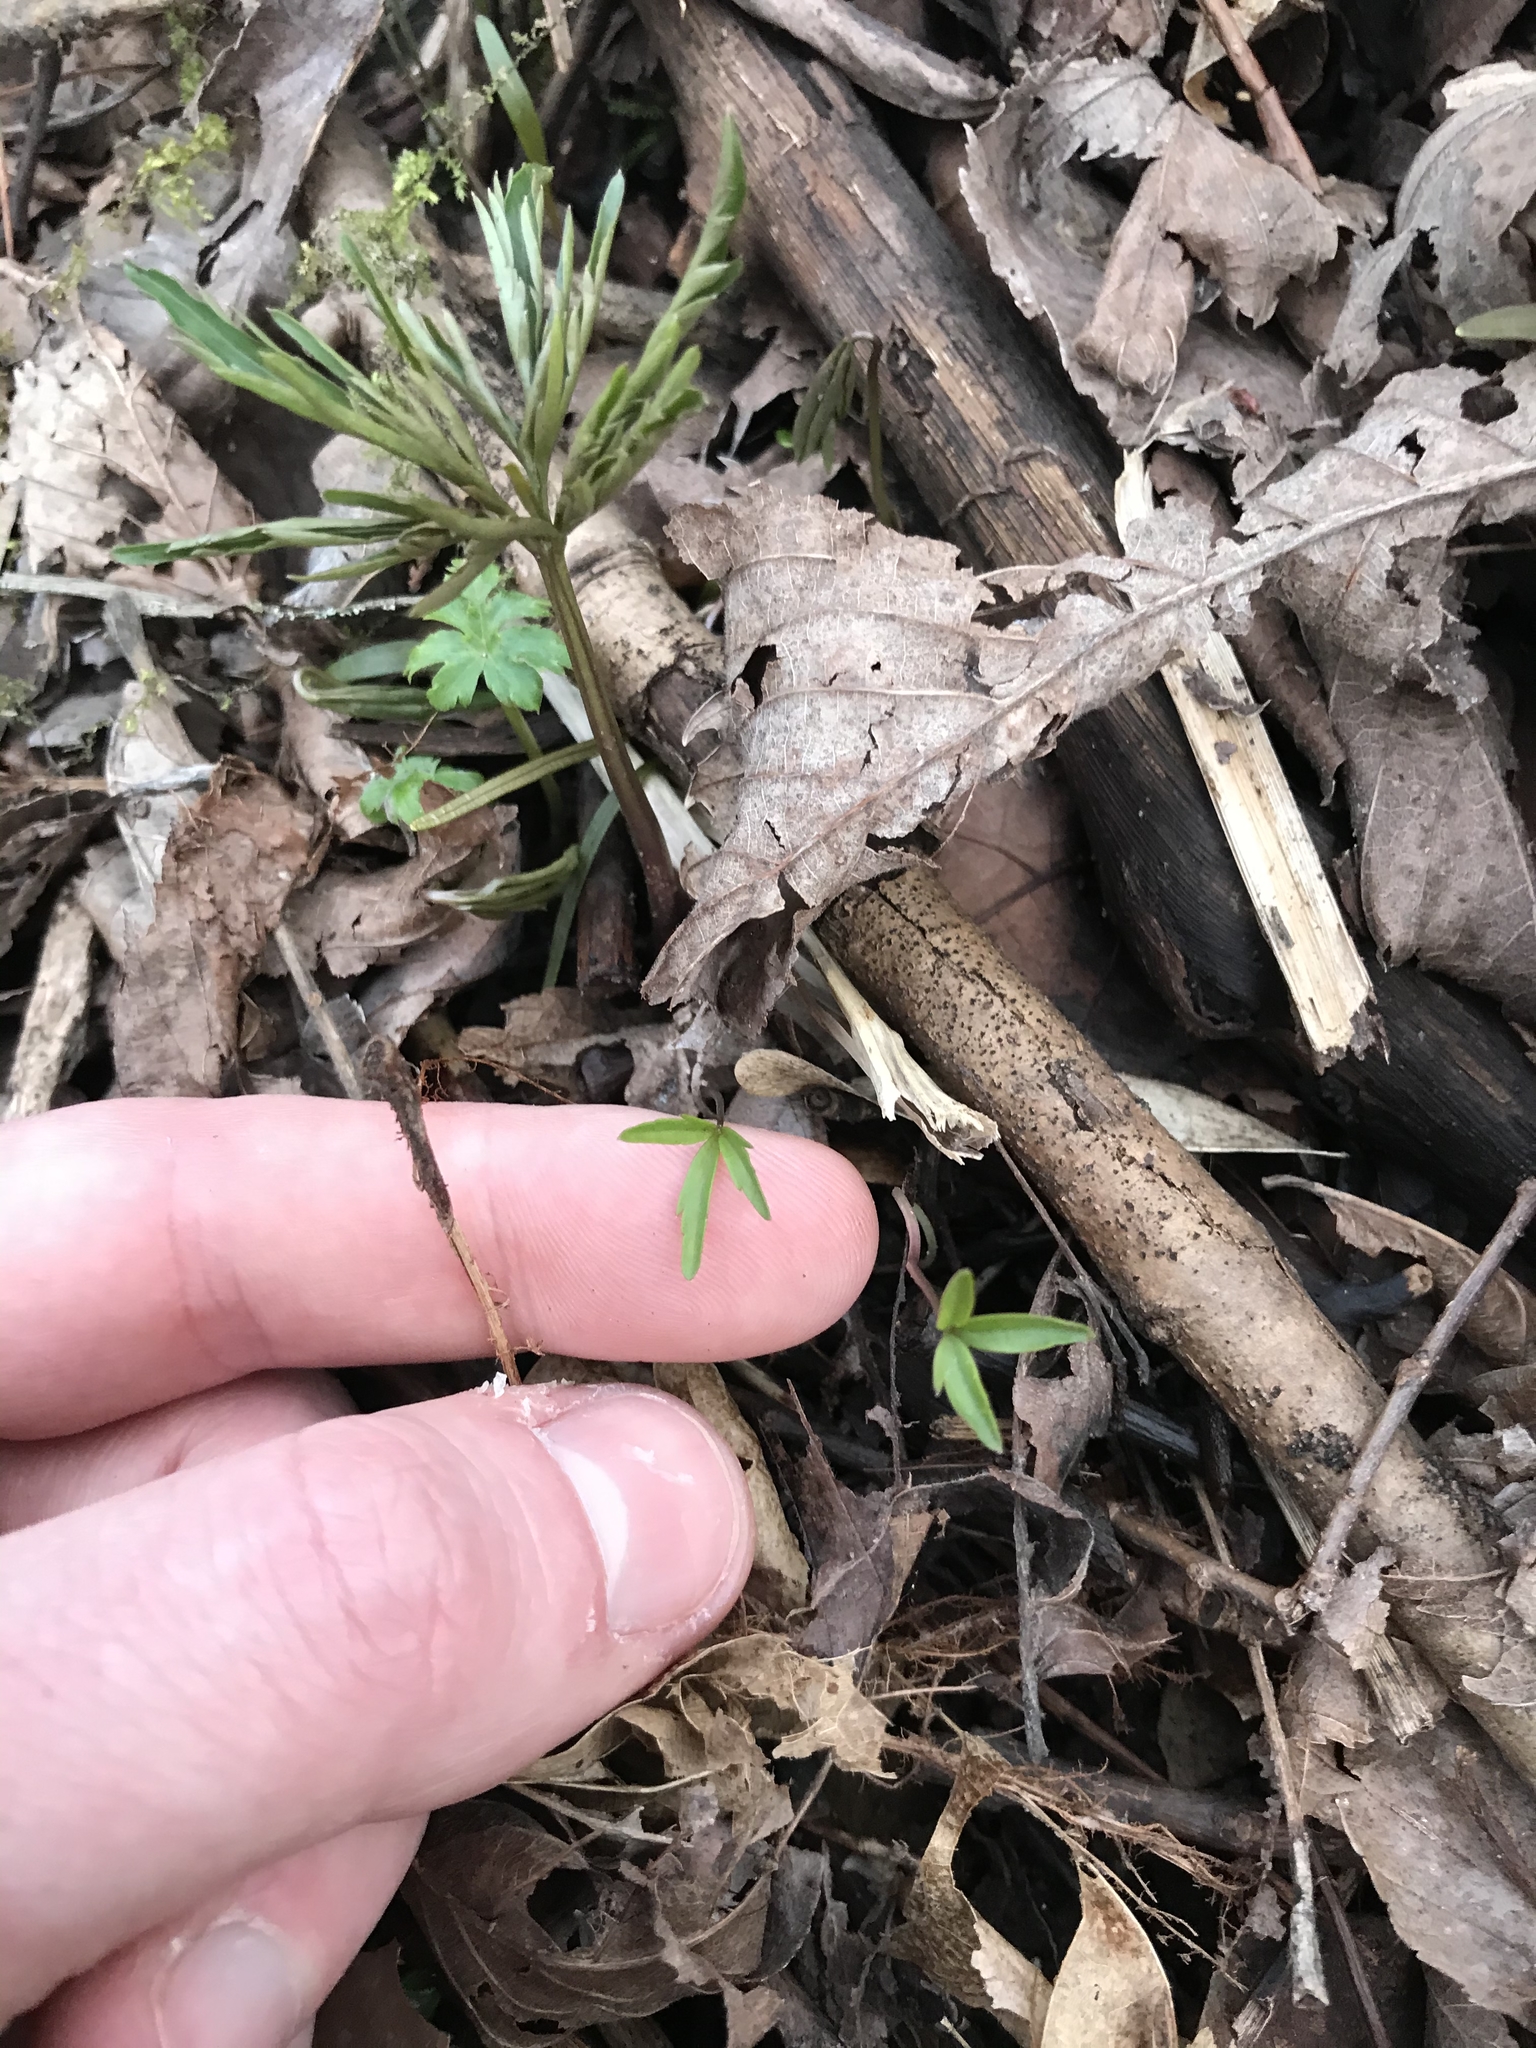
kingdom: Plantae
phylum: Tracheophyta
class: Magnoliopsida
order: Brassicales
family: Brassicaceae
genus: Cardamine
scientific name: Cardamine concatenata
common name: Cut-leaf toothcup
